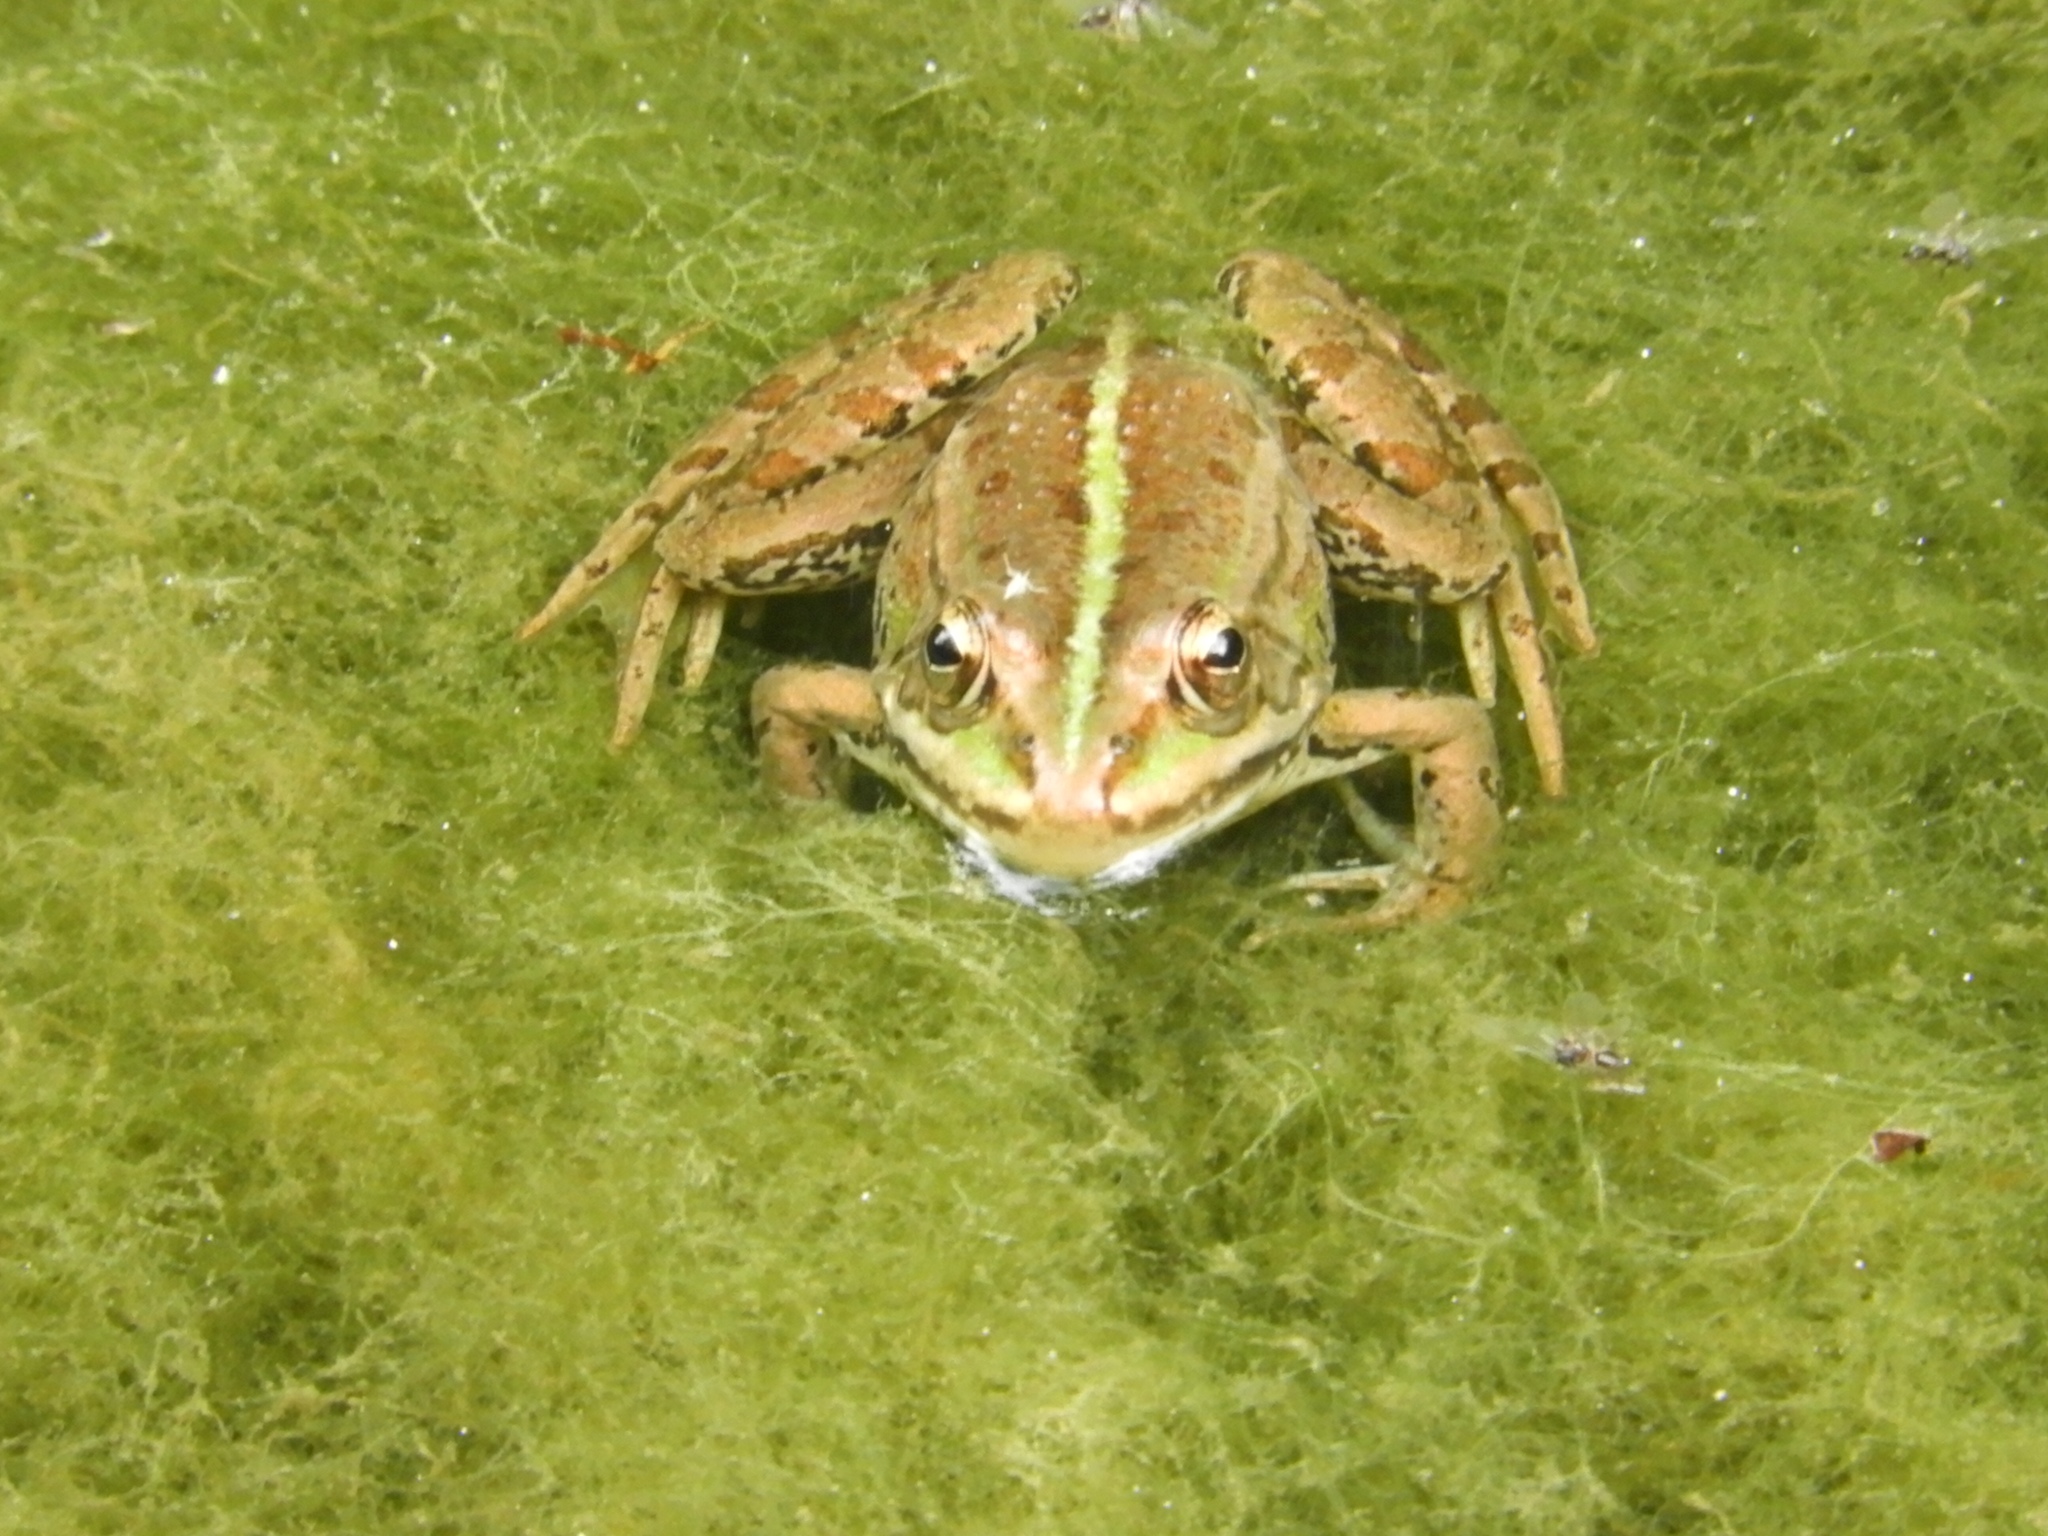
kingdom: Animalia
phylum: Chordata
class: Amphibia
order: Anura
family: Ranidae
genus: Pelophylax
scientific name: Pelophylax
